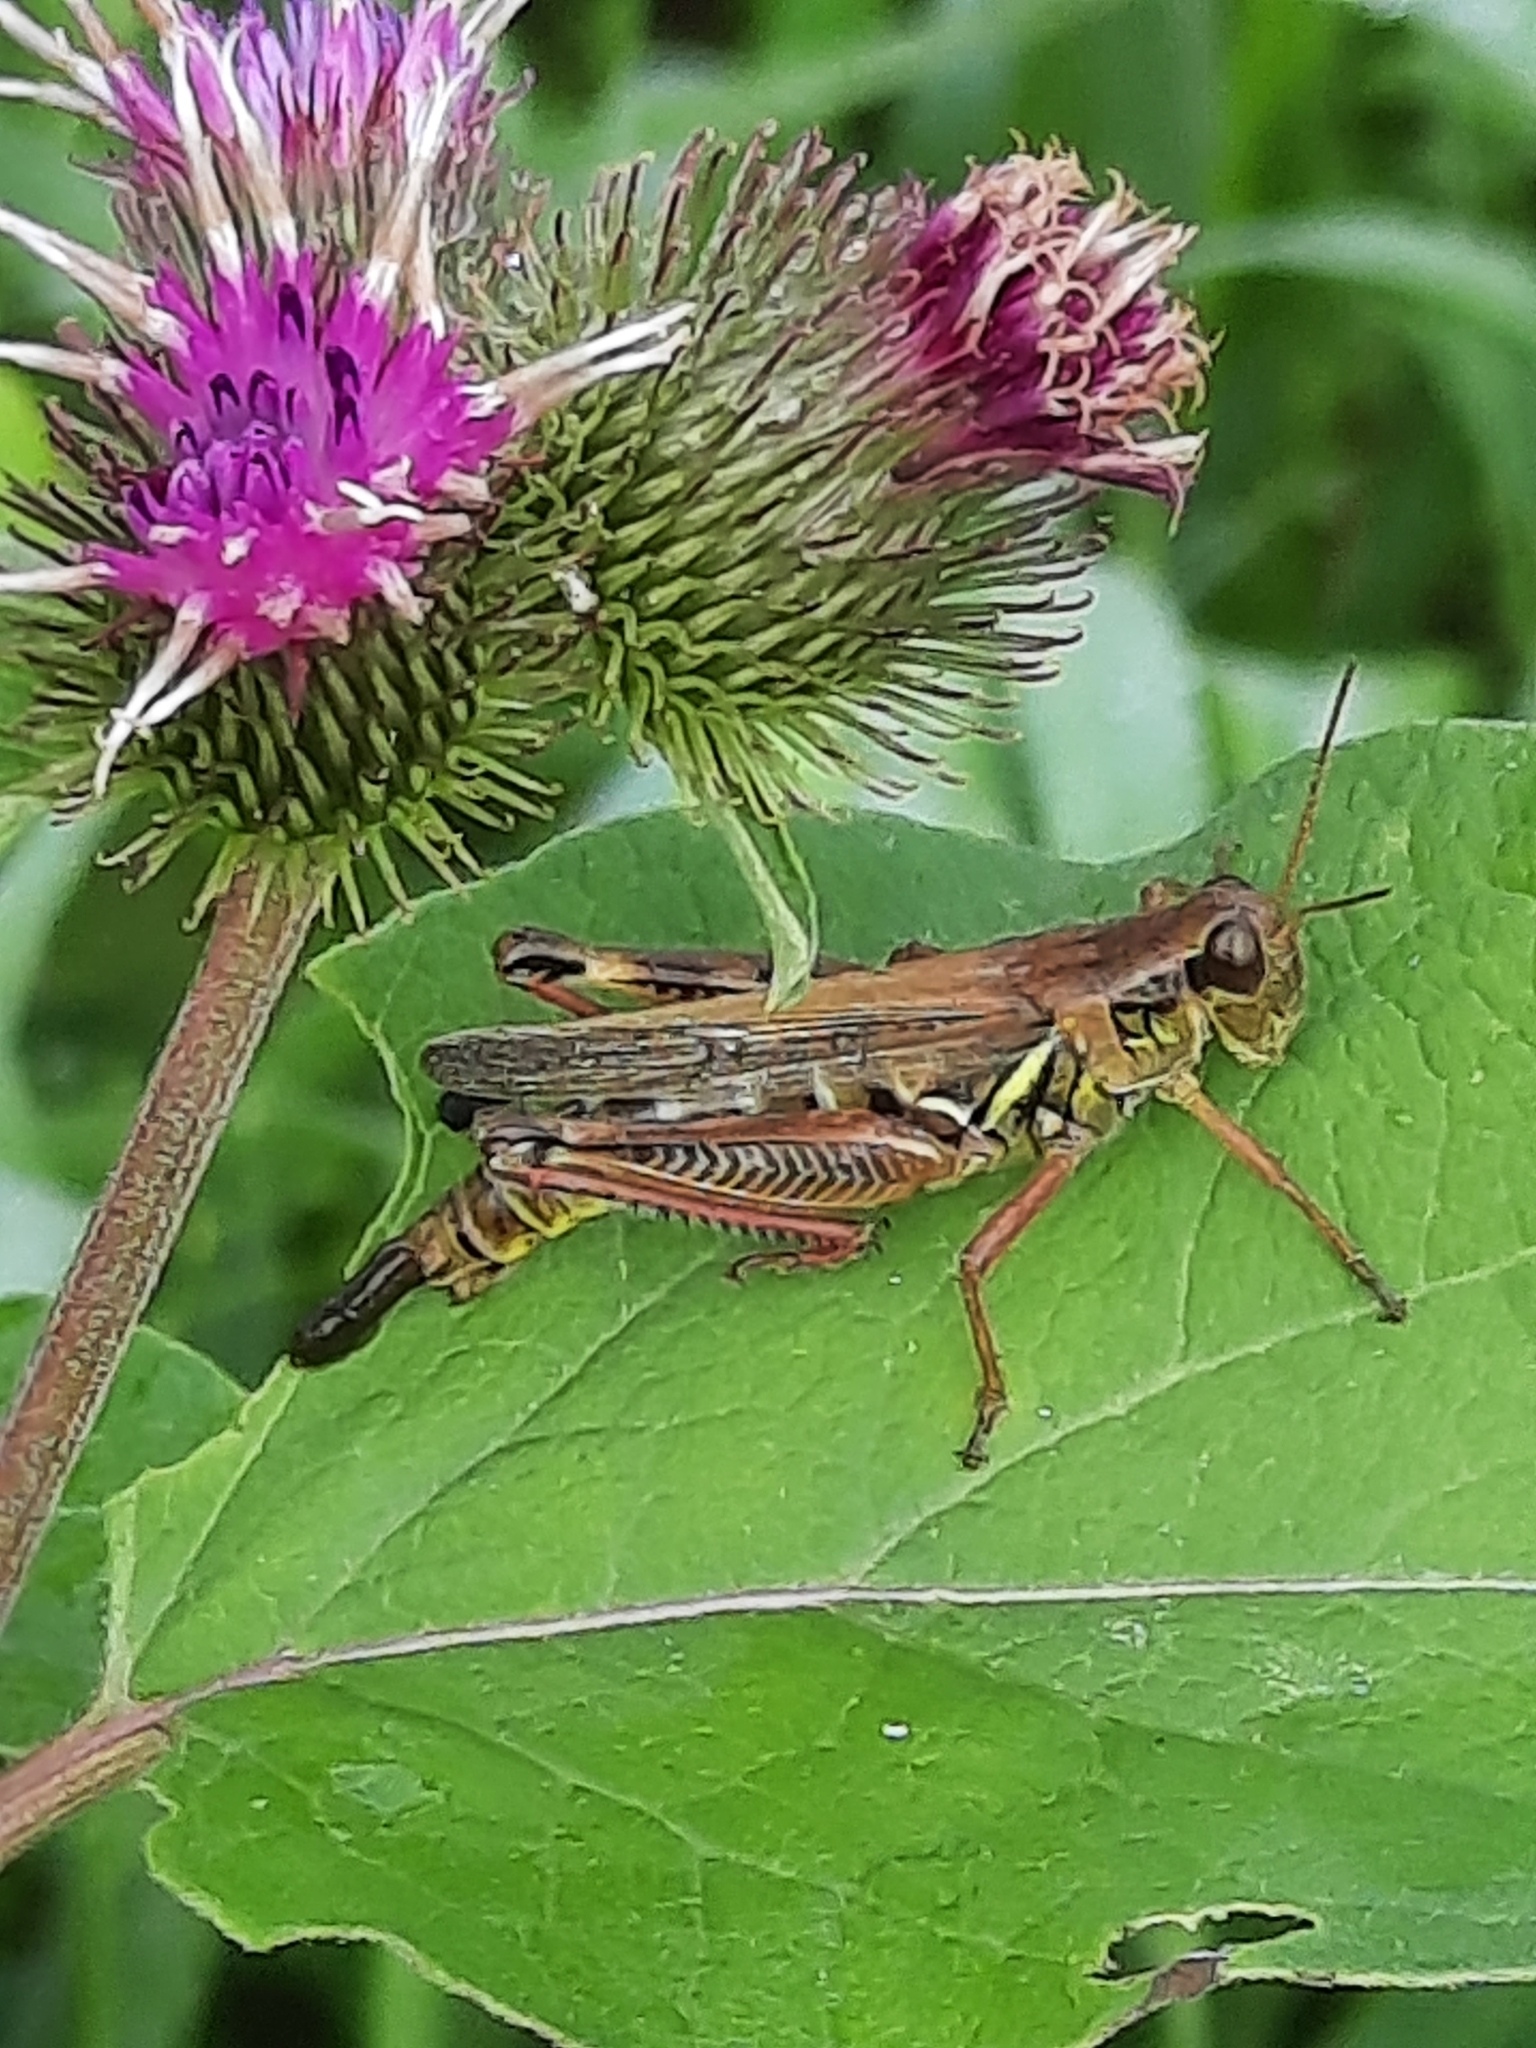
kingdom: Animalia
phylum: Arthropoda
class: Insecta
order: Orthoptera
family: Acrididae
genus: Melanoplus
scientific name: Melanoplus femurrubrum
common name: Red-legged grasshopper
